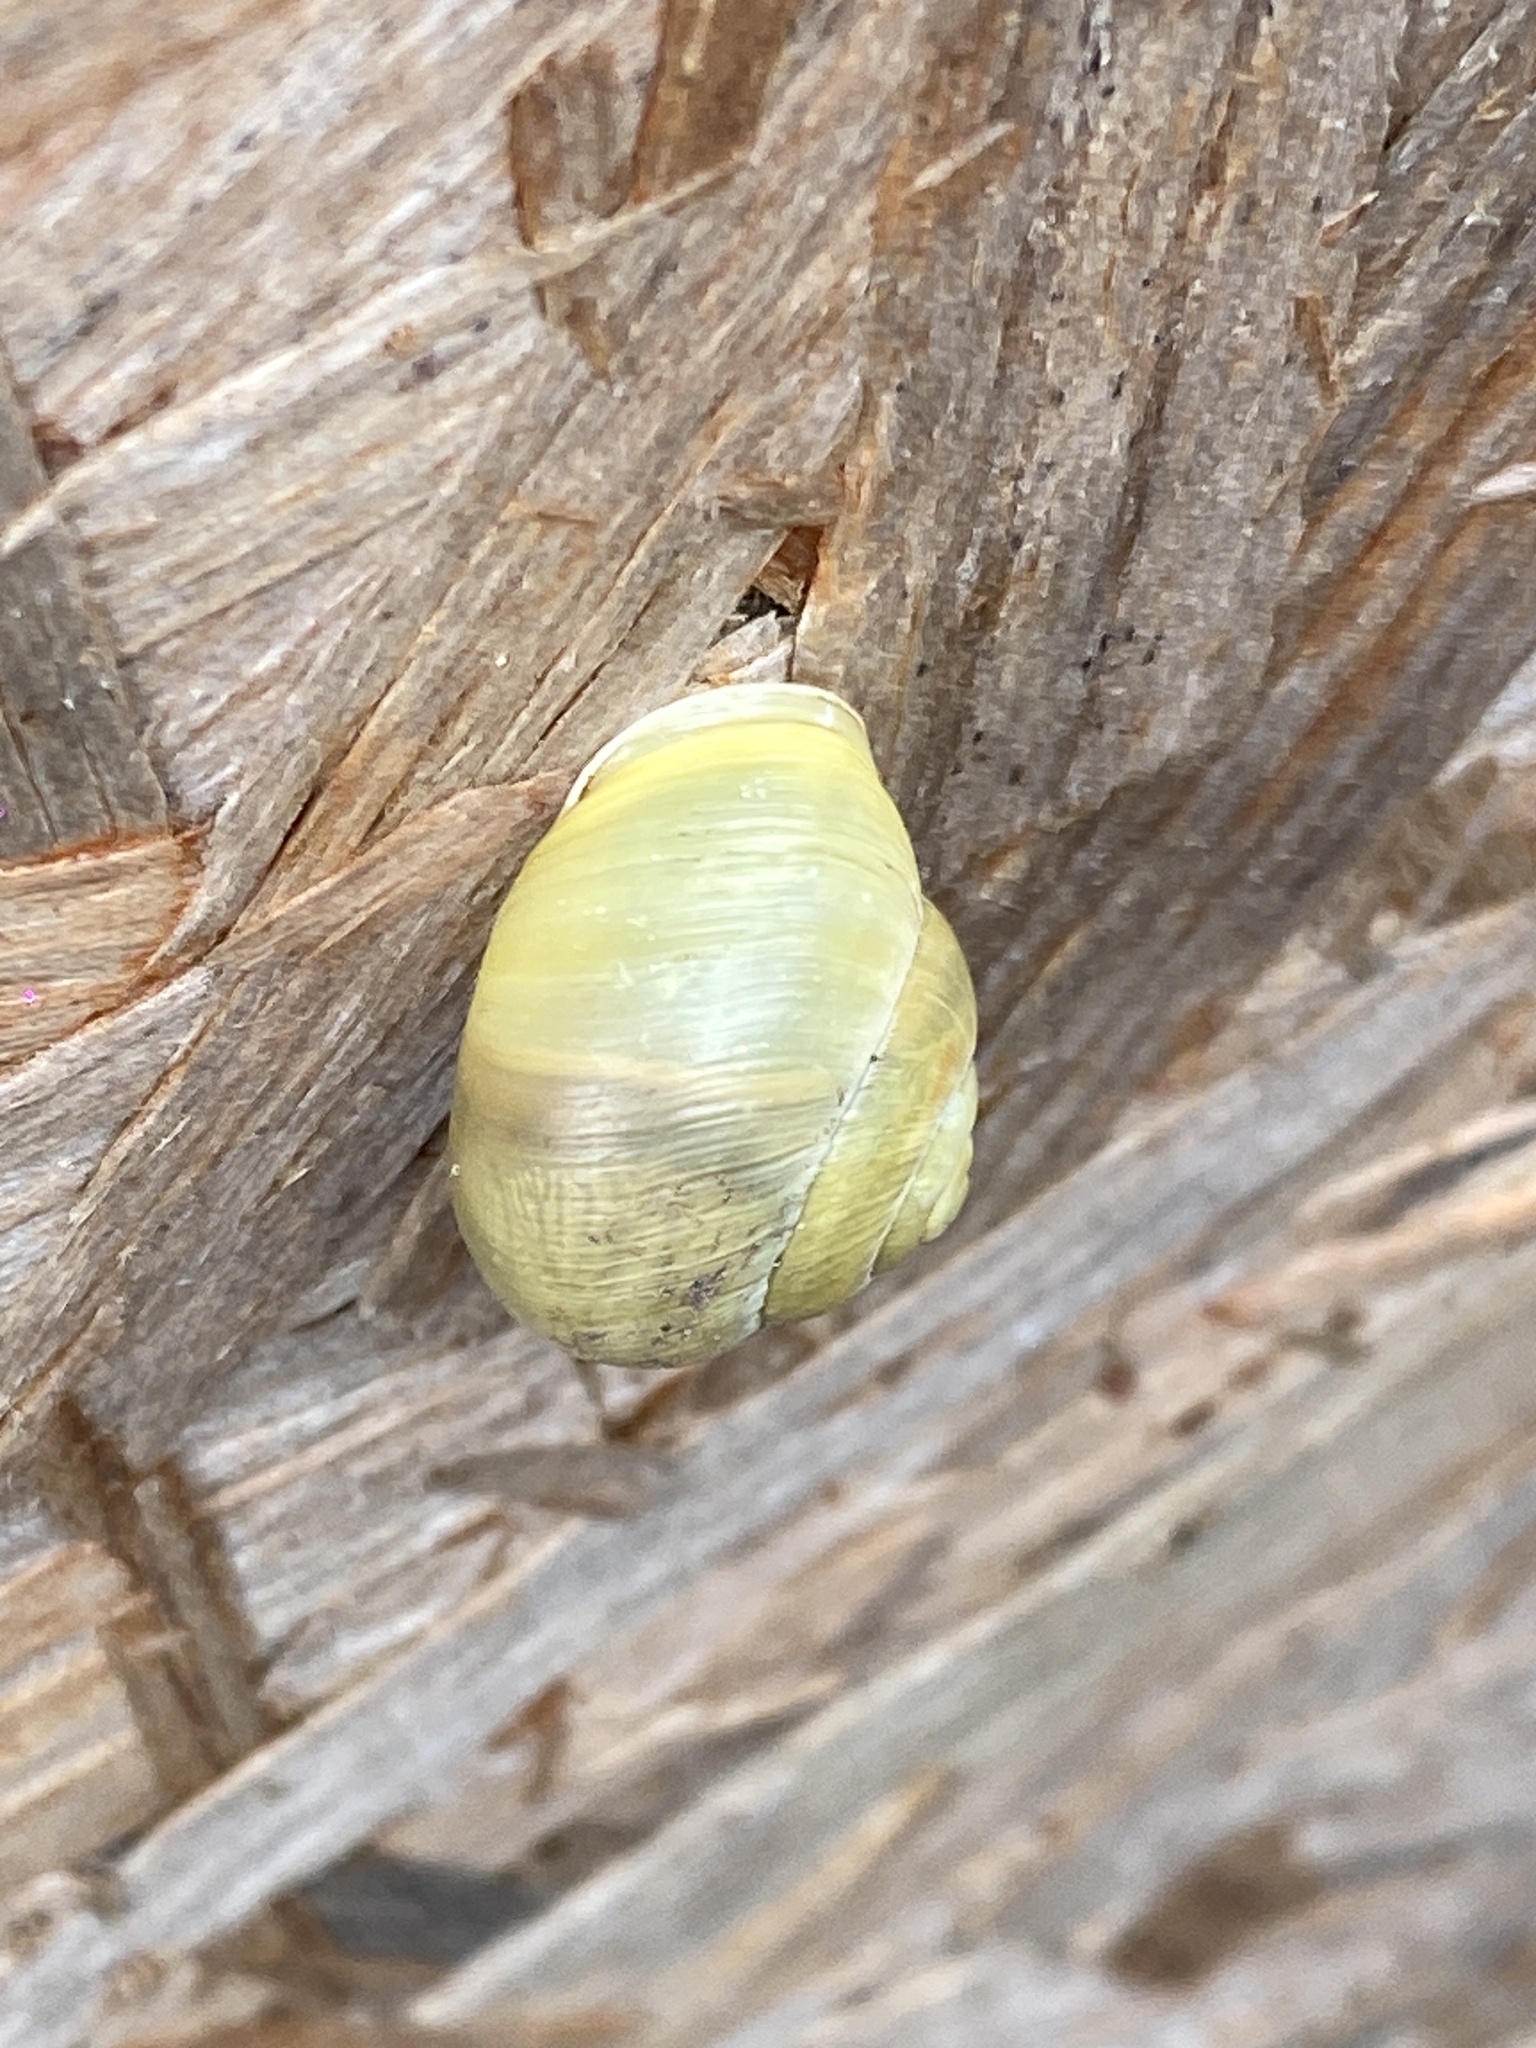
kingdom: Animalia
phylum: Mollusca
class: Gastropoda
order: Stylommatophora
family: Helicidae
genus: Cepaea
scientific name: Cepaea hortensis
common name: White-lip gardensnail
